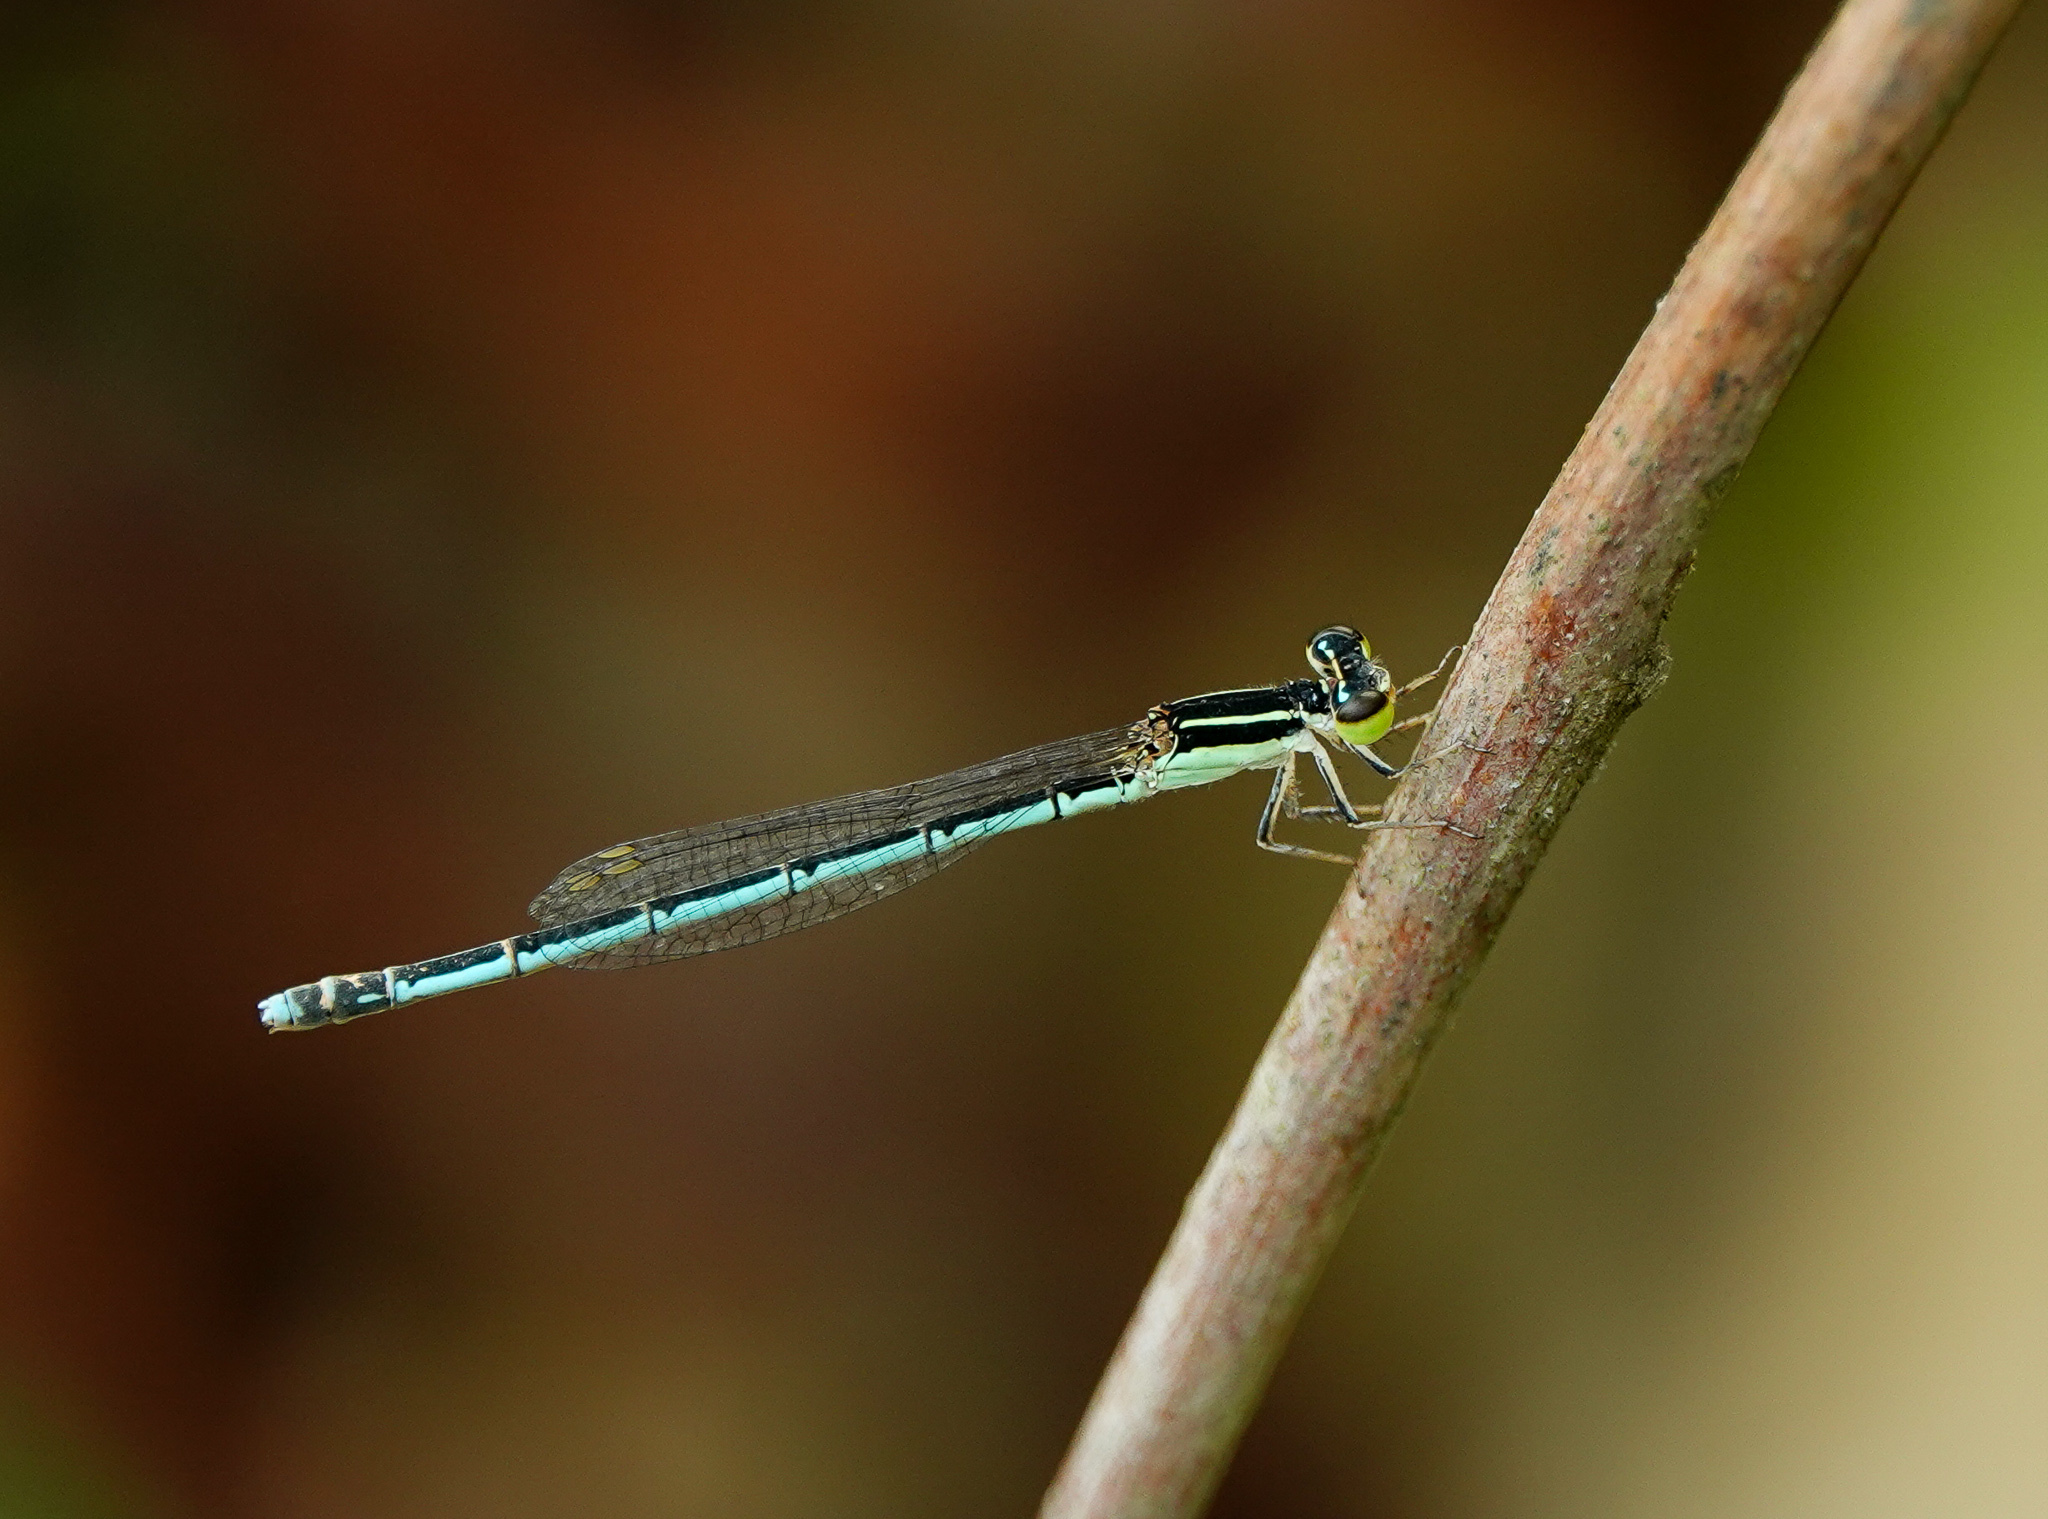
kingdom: Animalia
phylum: Arthropoda
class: Insecta
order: Odonata
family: Coenagrionidae
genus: Agriocnemis
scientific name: Agriocnemis lacteola
